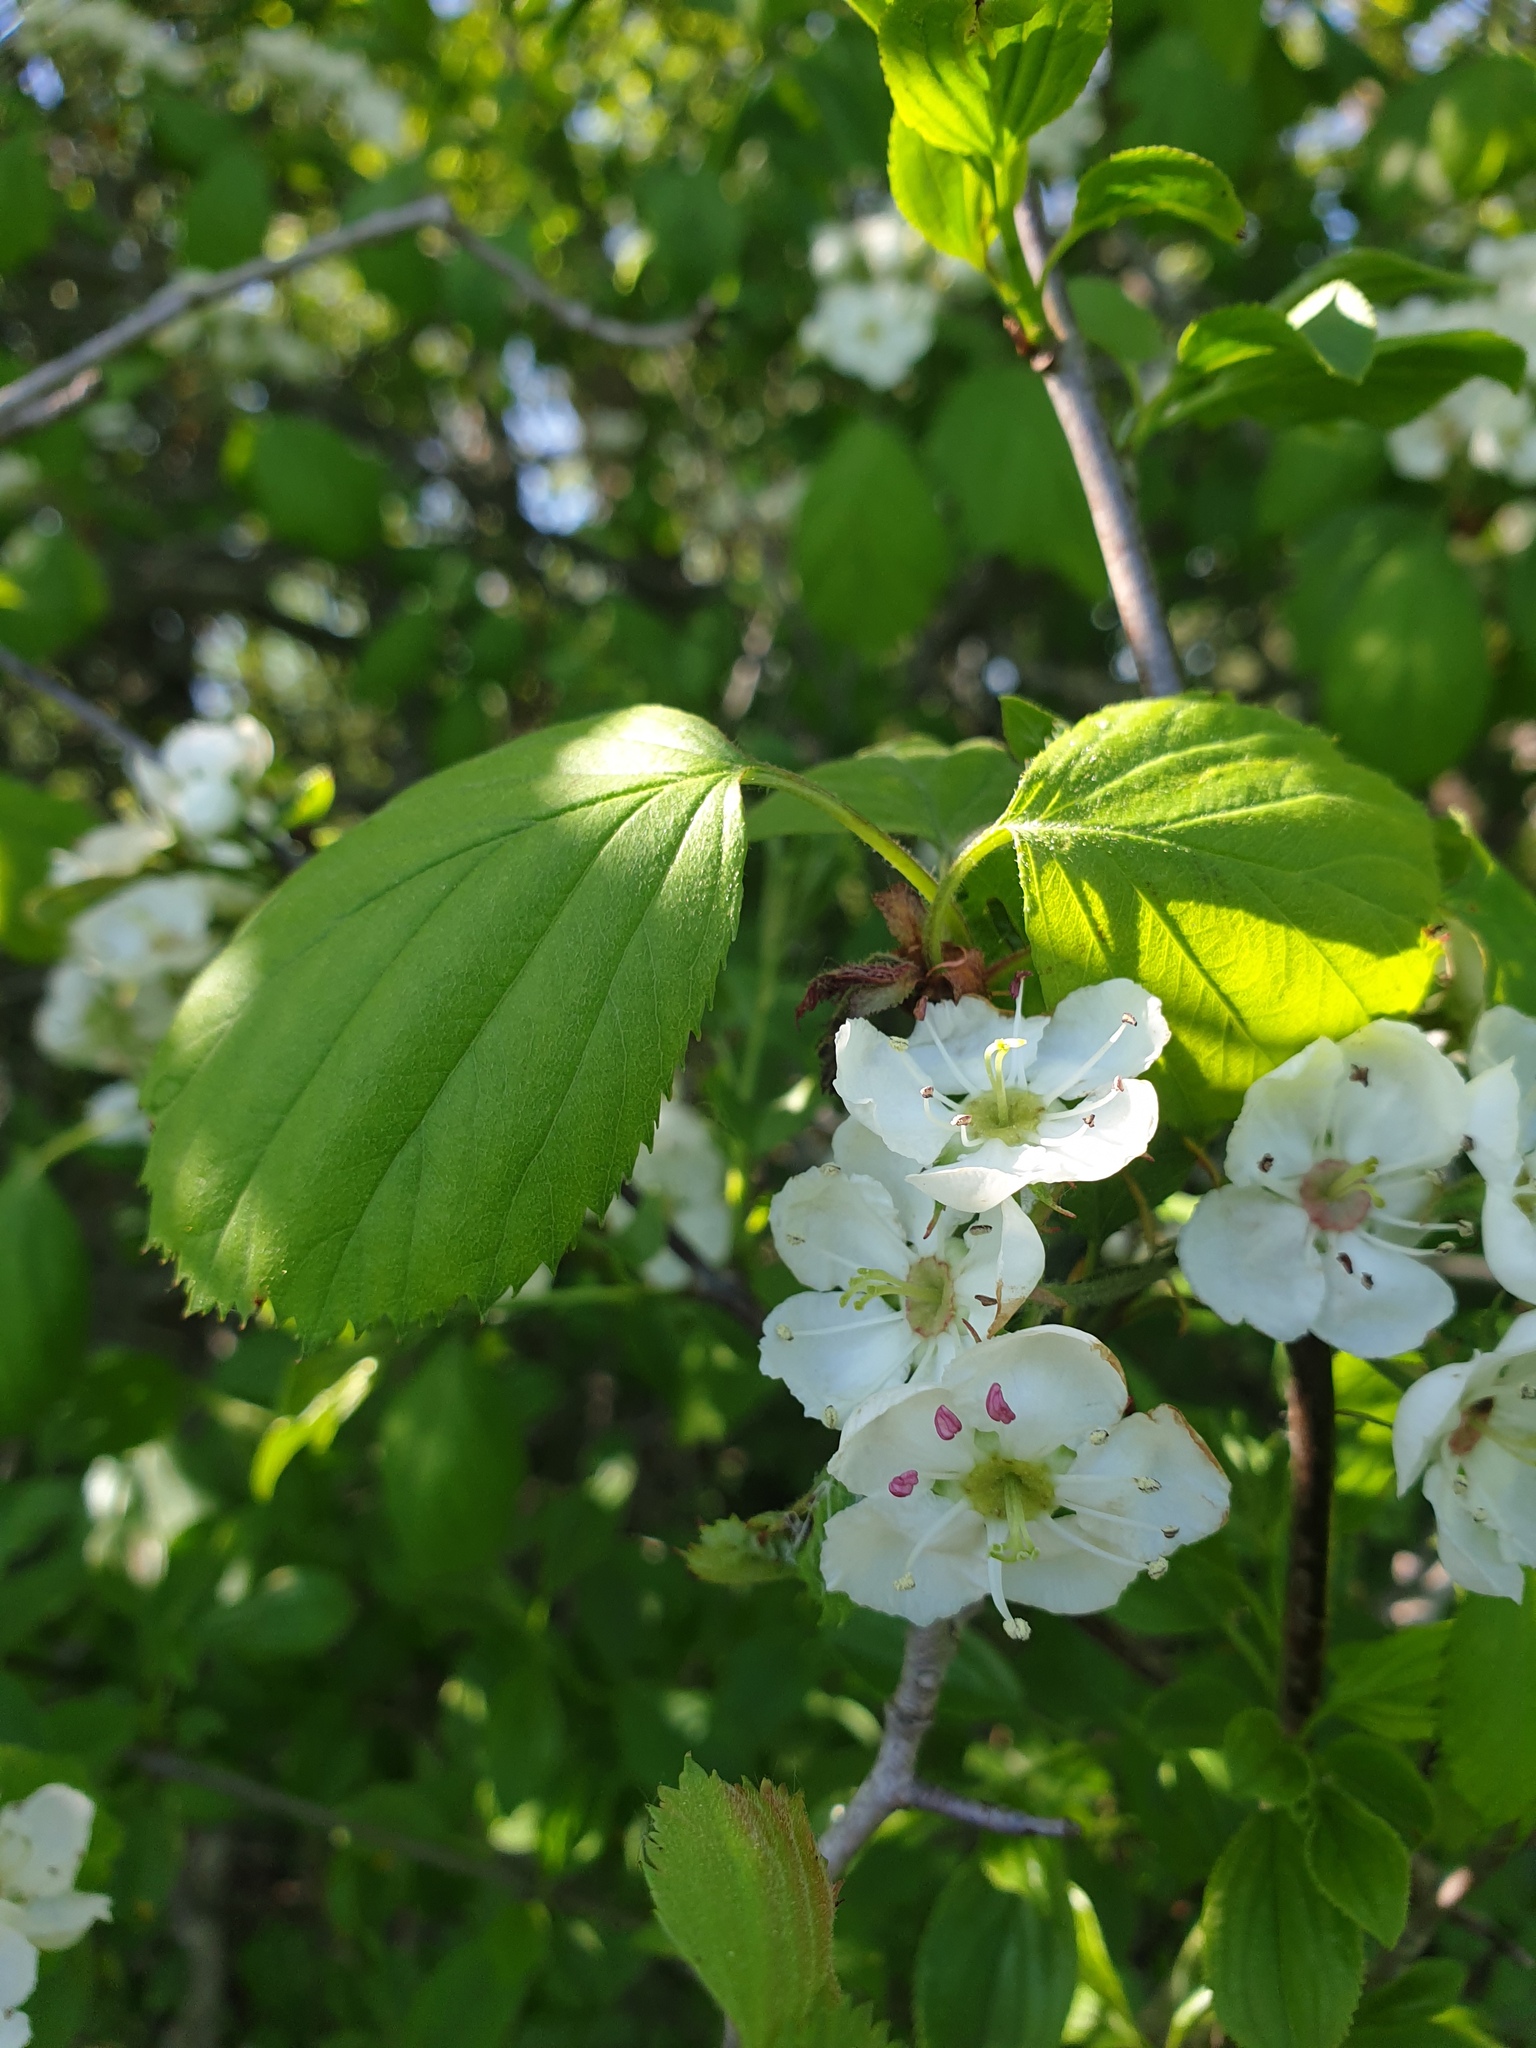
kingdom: Plantae
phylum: Tracheophyta
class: Magnoliopsida
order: Rosales
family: Rosaceae
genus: Crataegus
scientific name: Crataegus coccinea
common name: Scarlet hawthorn
